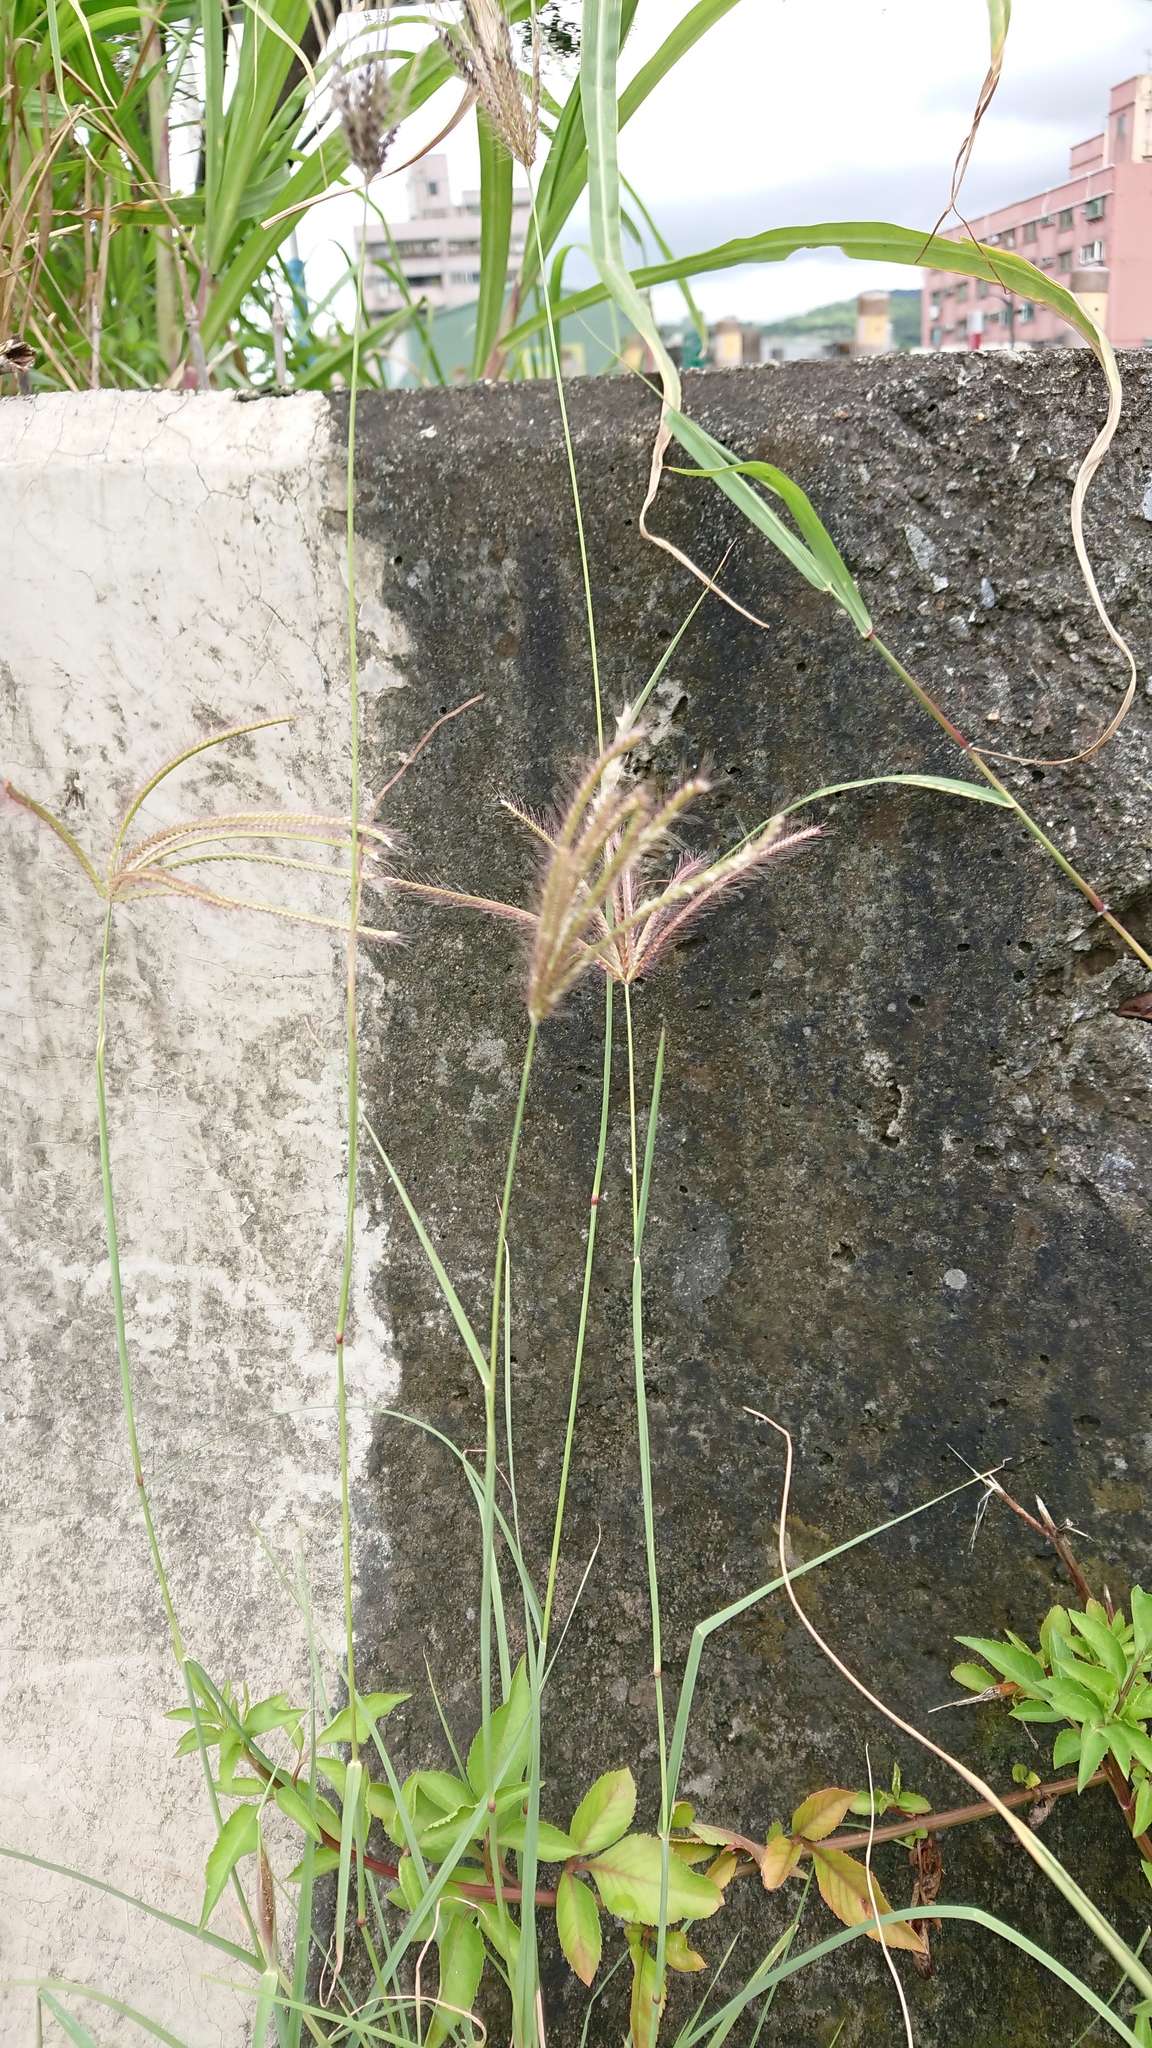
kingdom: Plantae
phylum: Tracheophyta
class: Liliopsida
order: Poales
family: Poaceae
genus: Chloris
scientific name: Chloris barbata
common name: Swollen fingergrass
